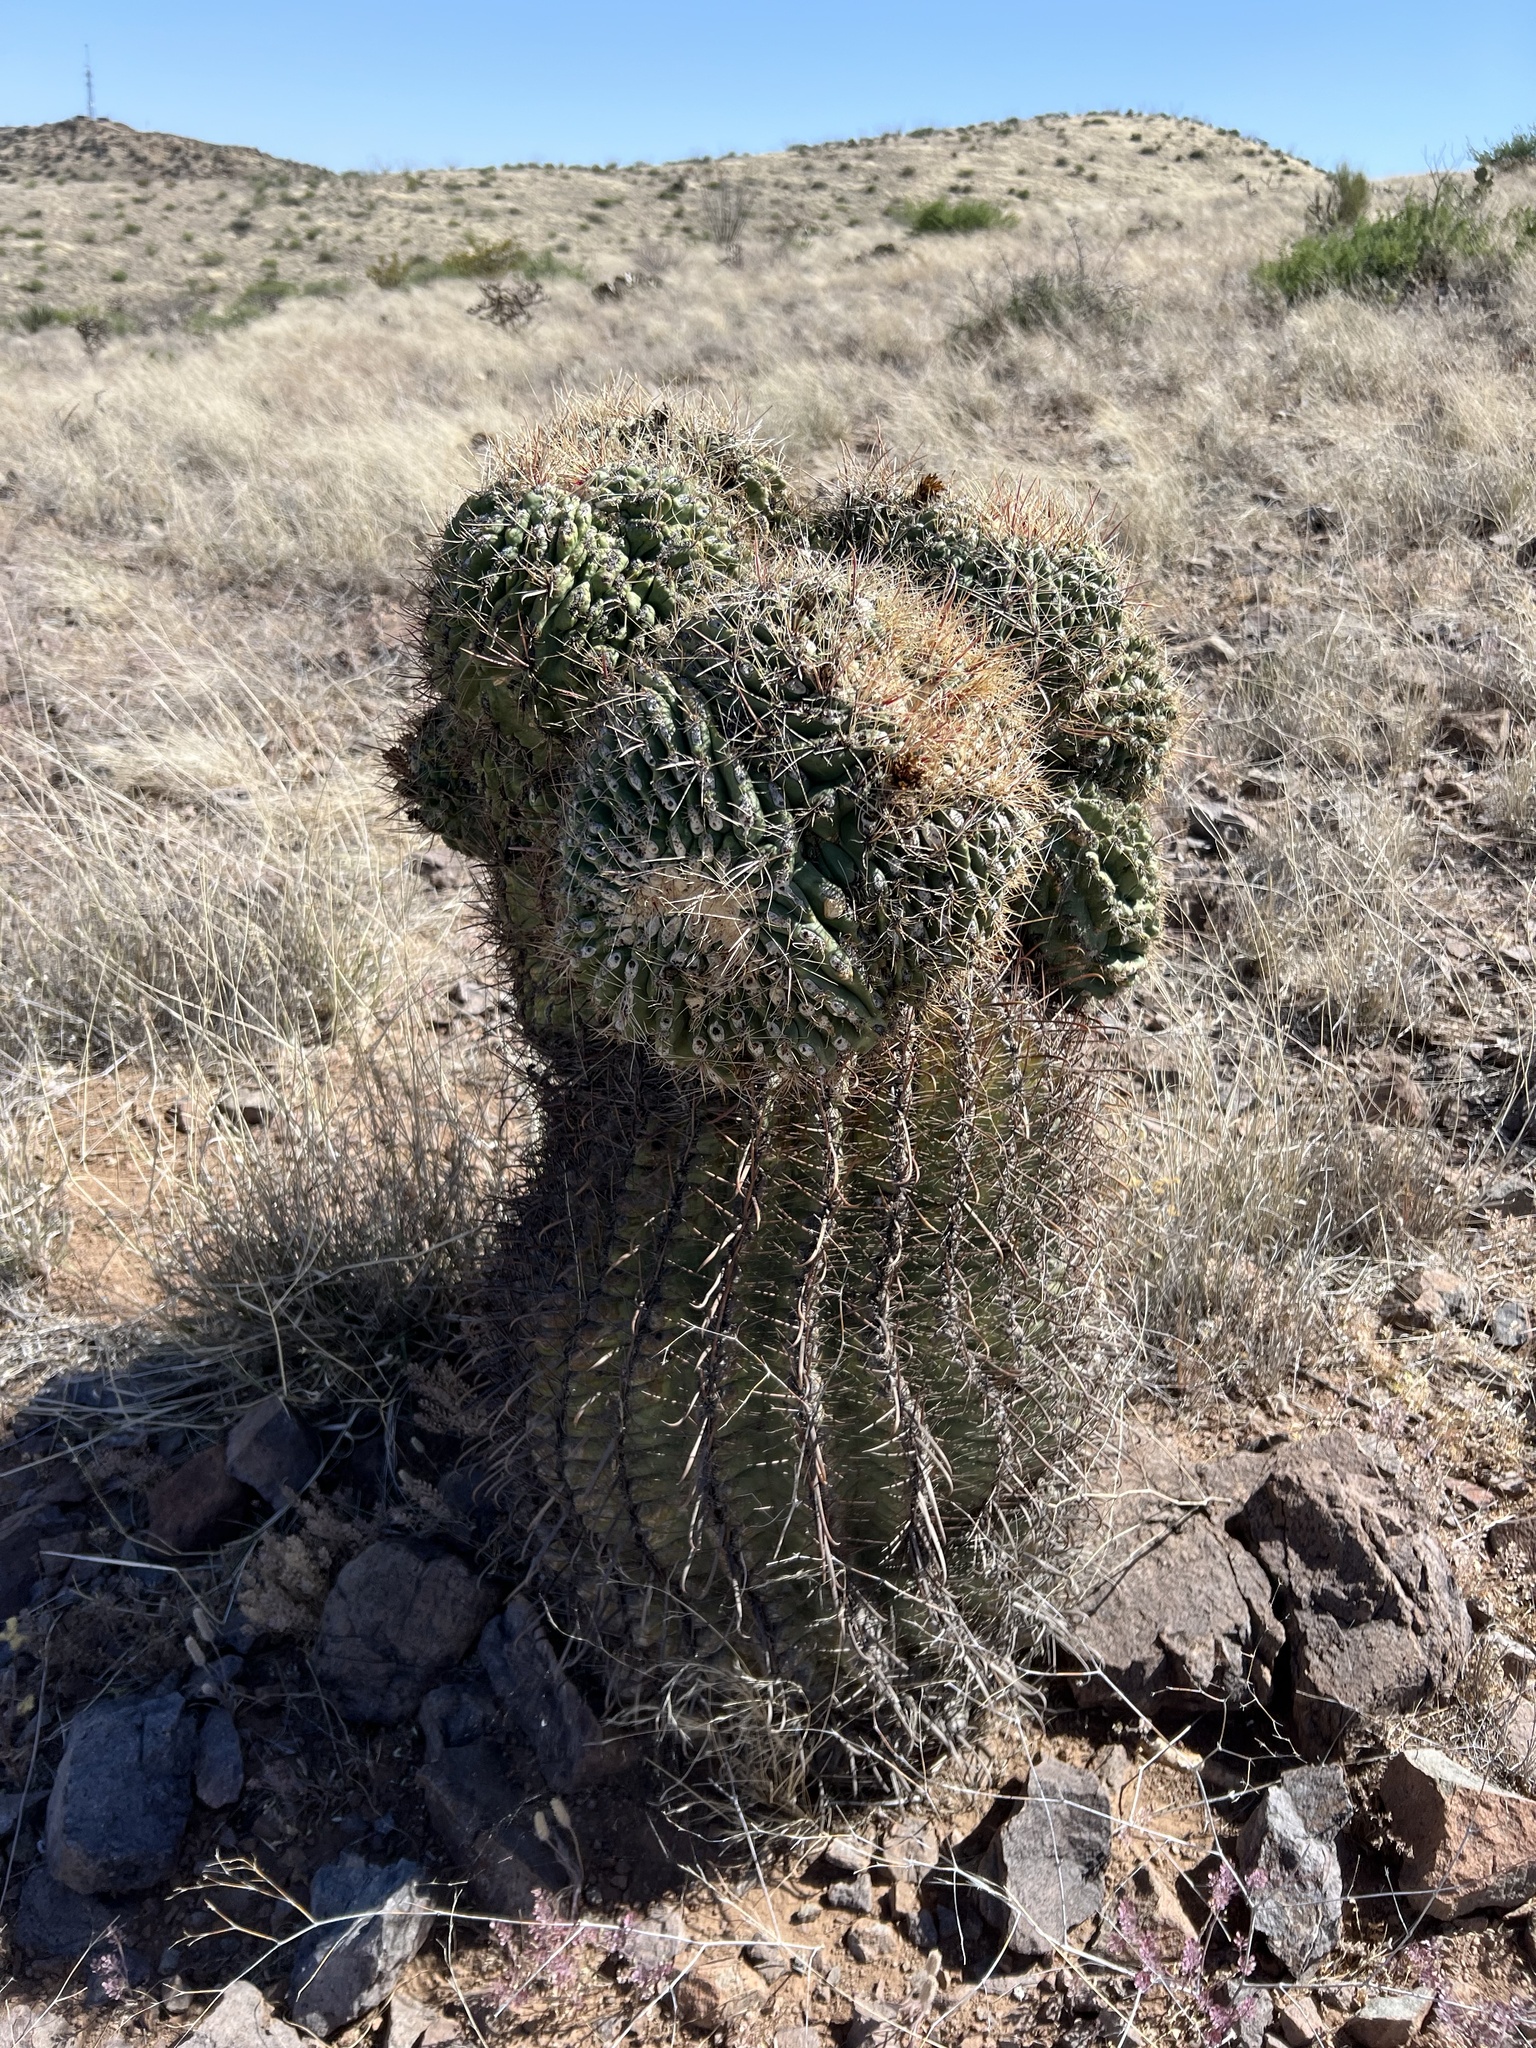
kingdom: Plantae
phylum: Tracheophyta
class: Magnoliopsida
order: Caryophyllales
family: Cactaceae
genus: Ferocactus
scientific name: Ferocactus wislizeni
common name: Candy barrel cactus
